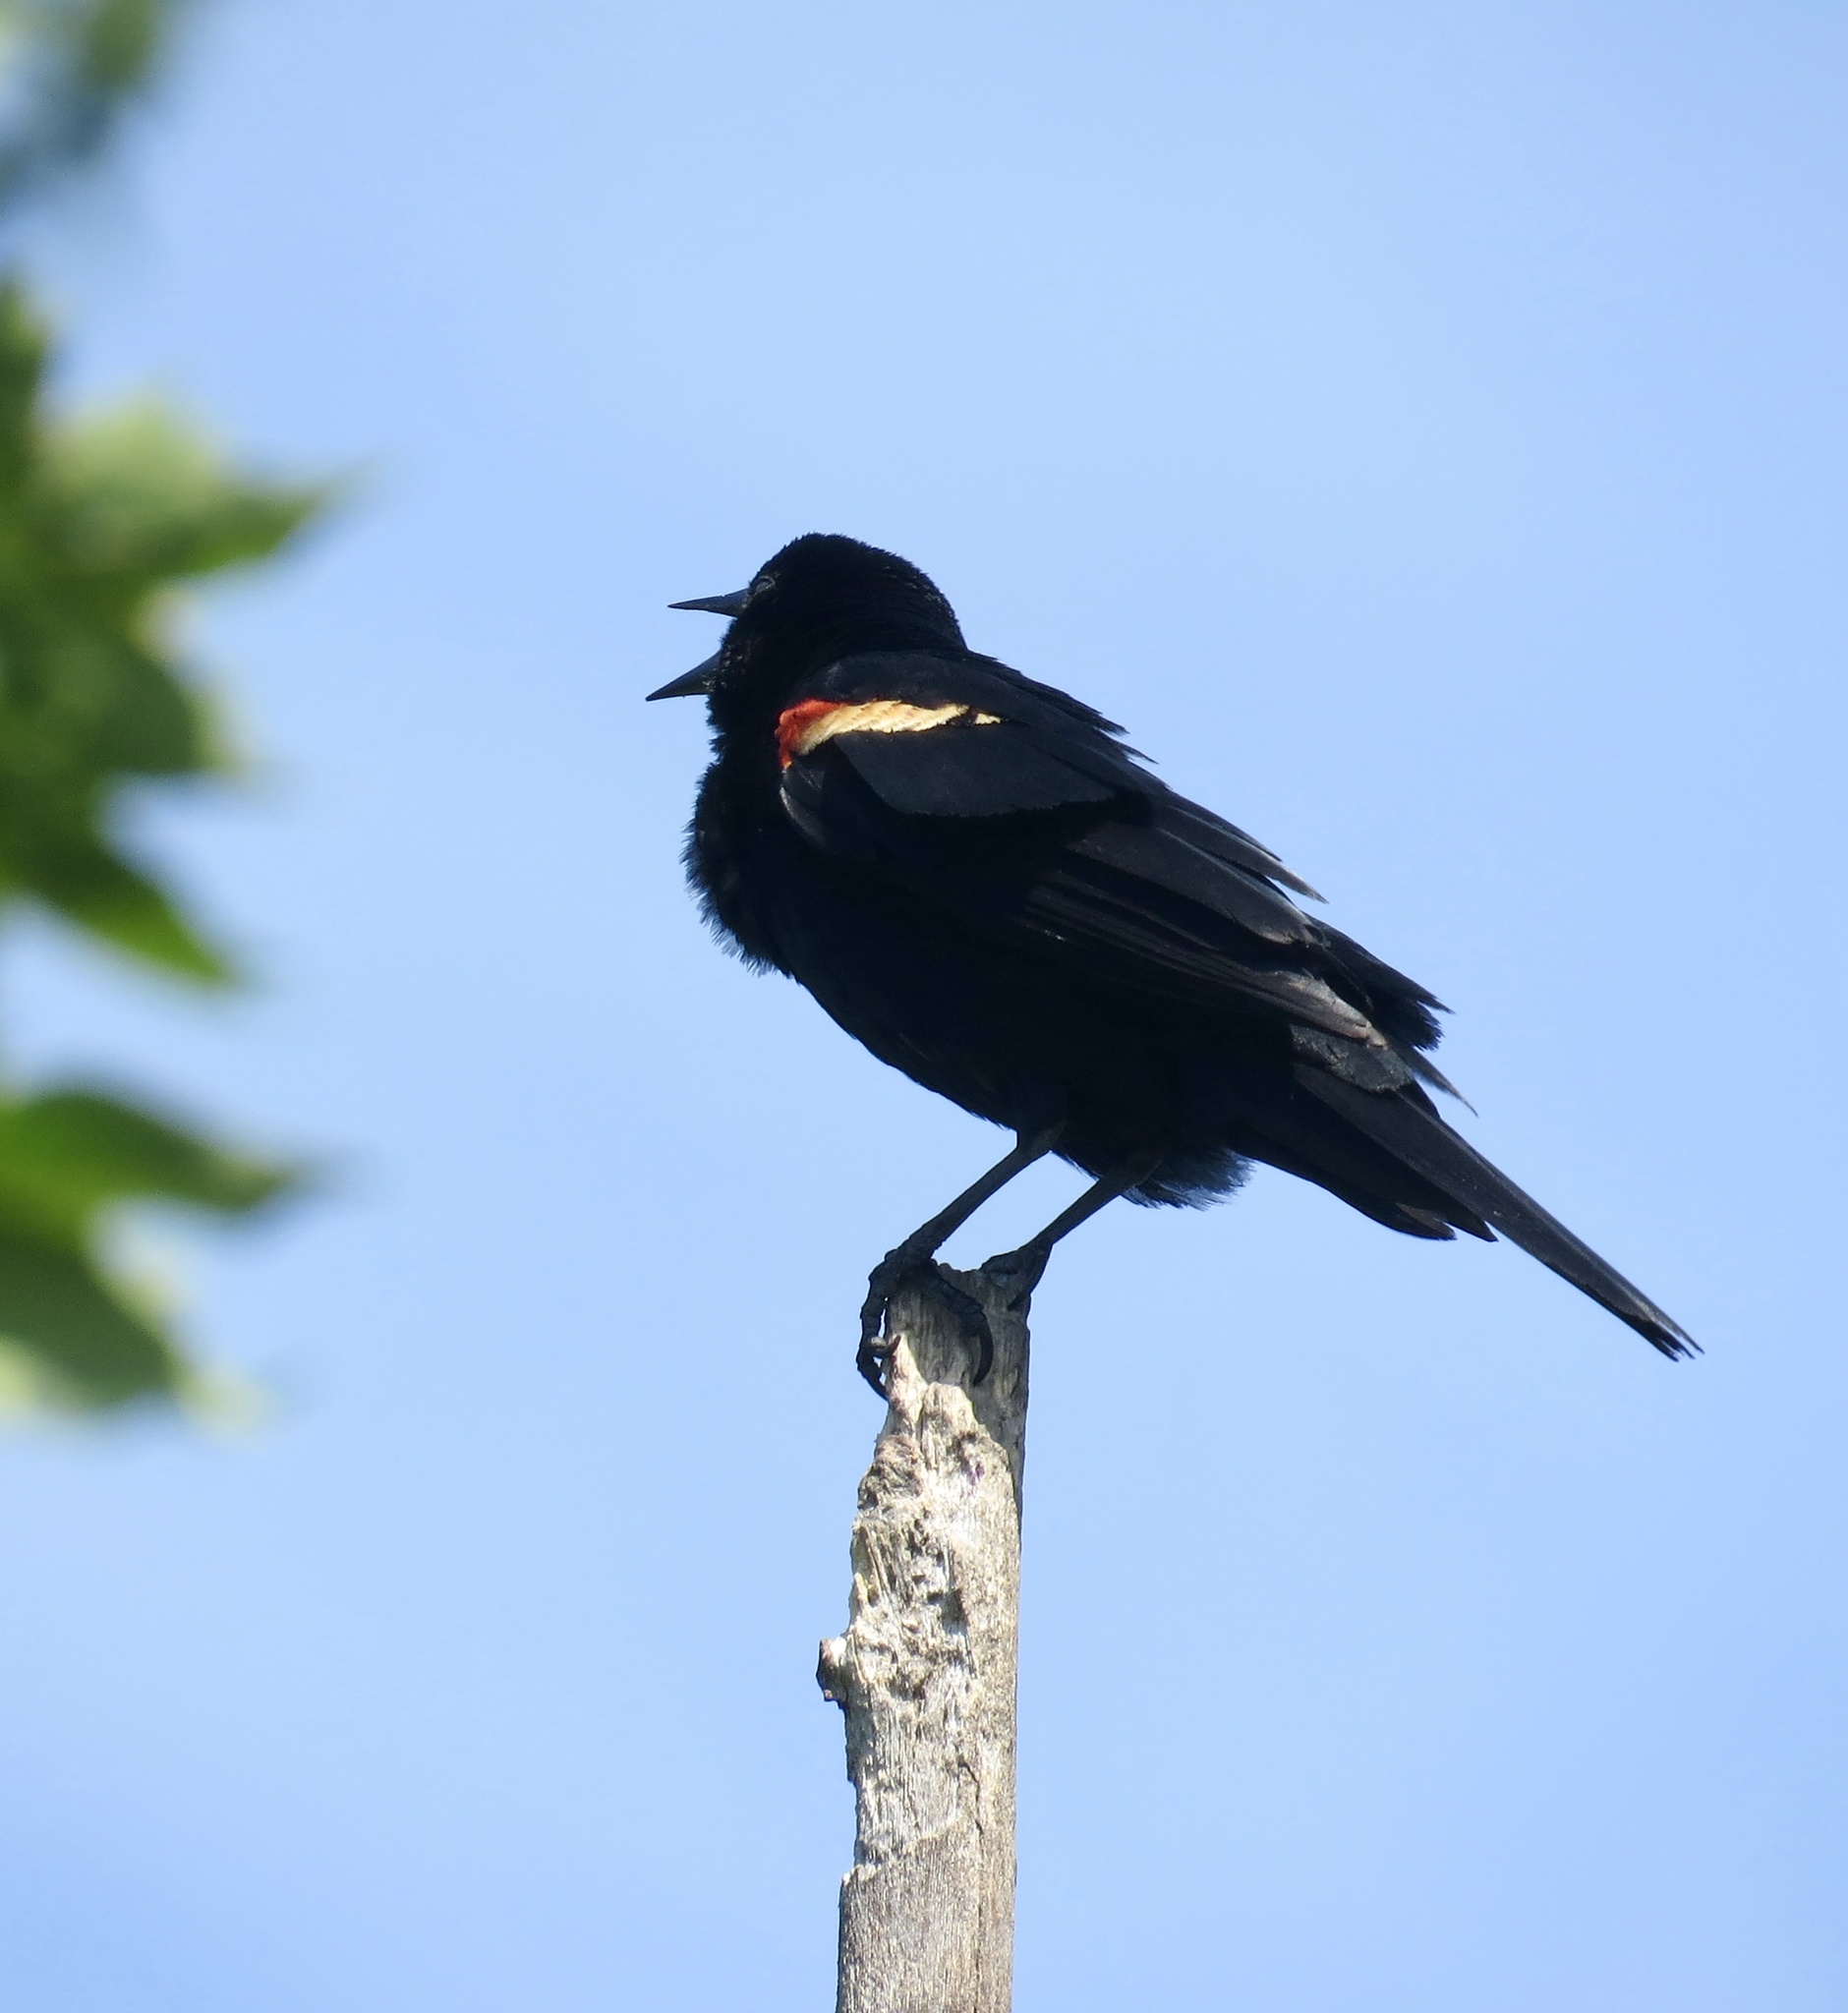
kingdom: Animalia
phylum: Chordata
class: Aves
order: Passeriformes
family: Icteridae
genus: Agelaius
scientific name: Agelaius phoeniceus
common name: Red-winged blackbird
